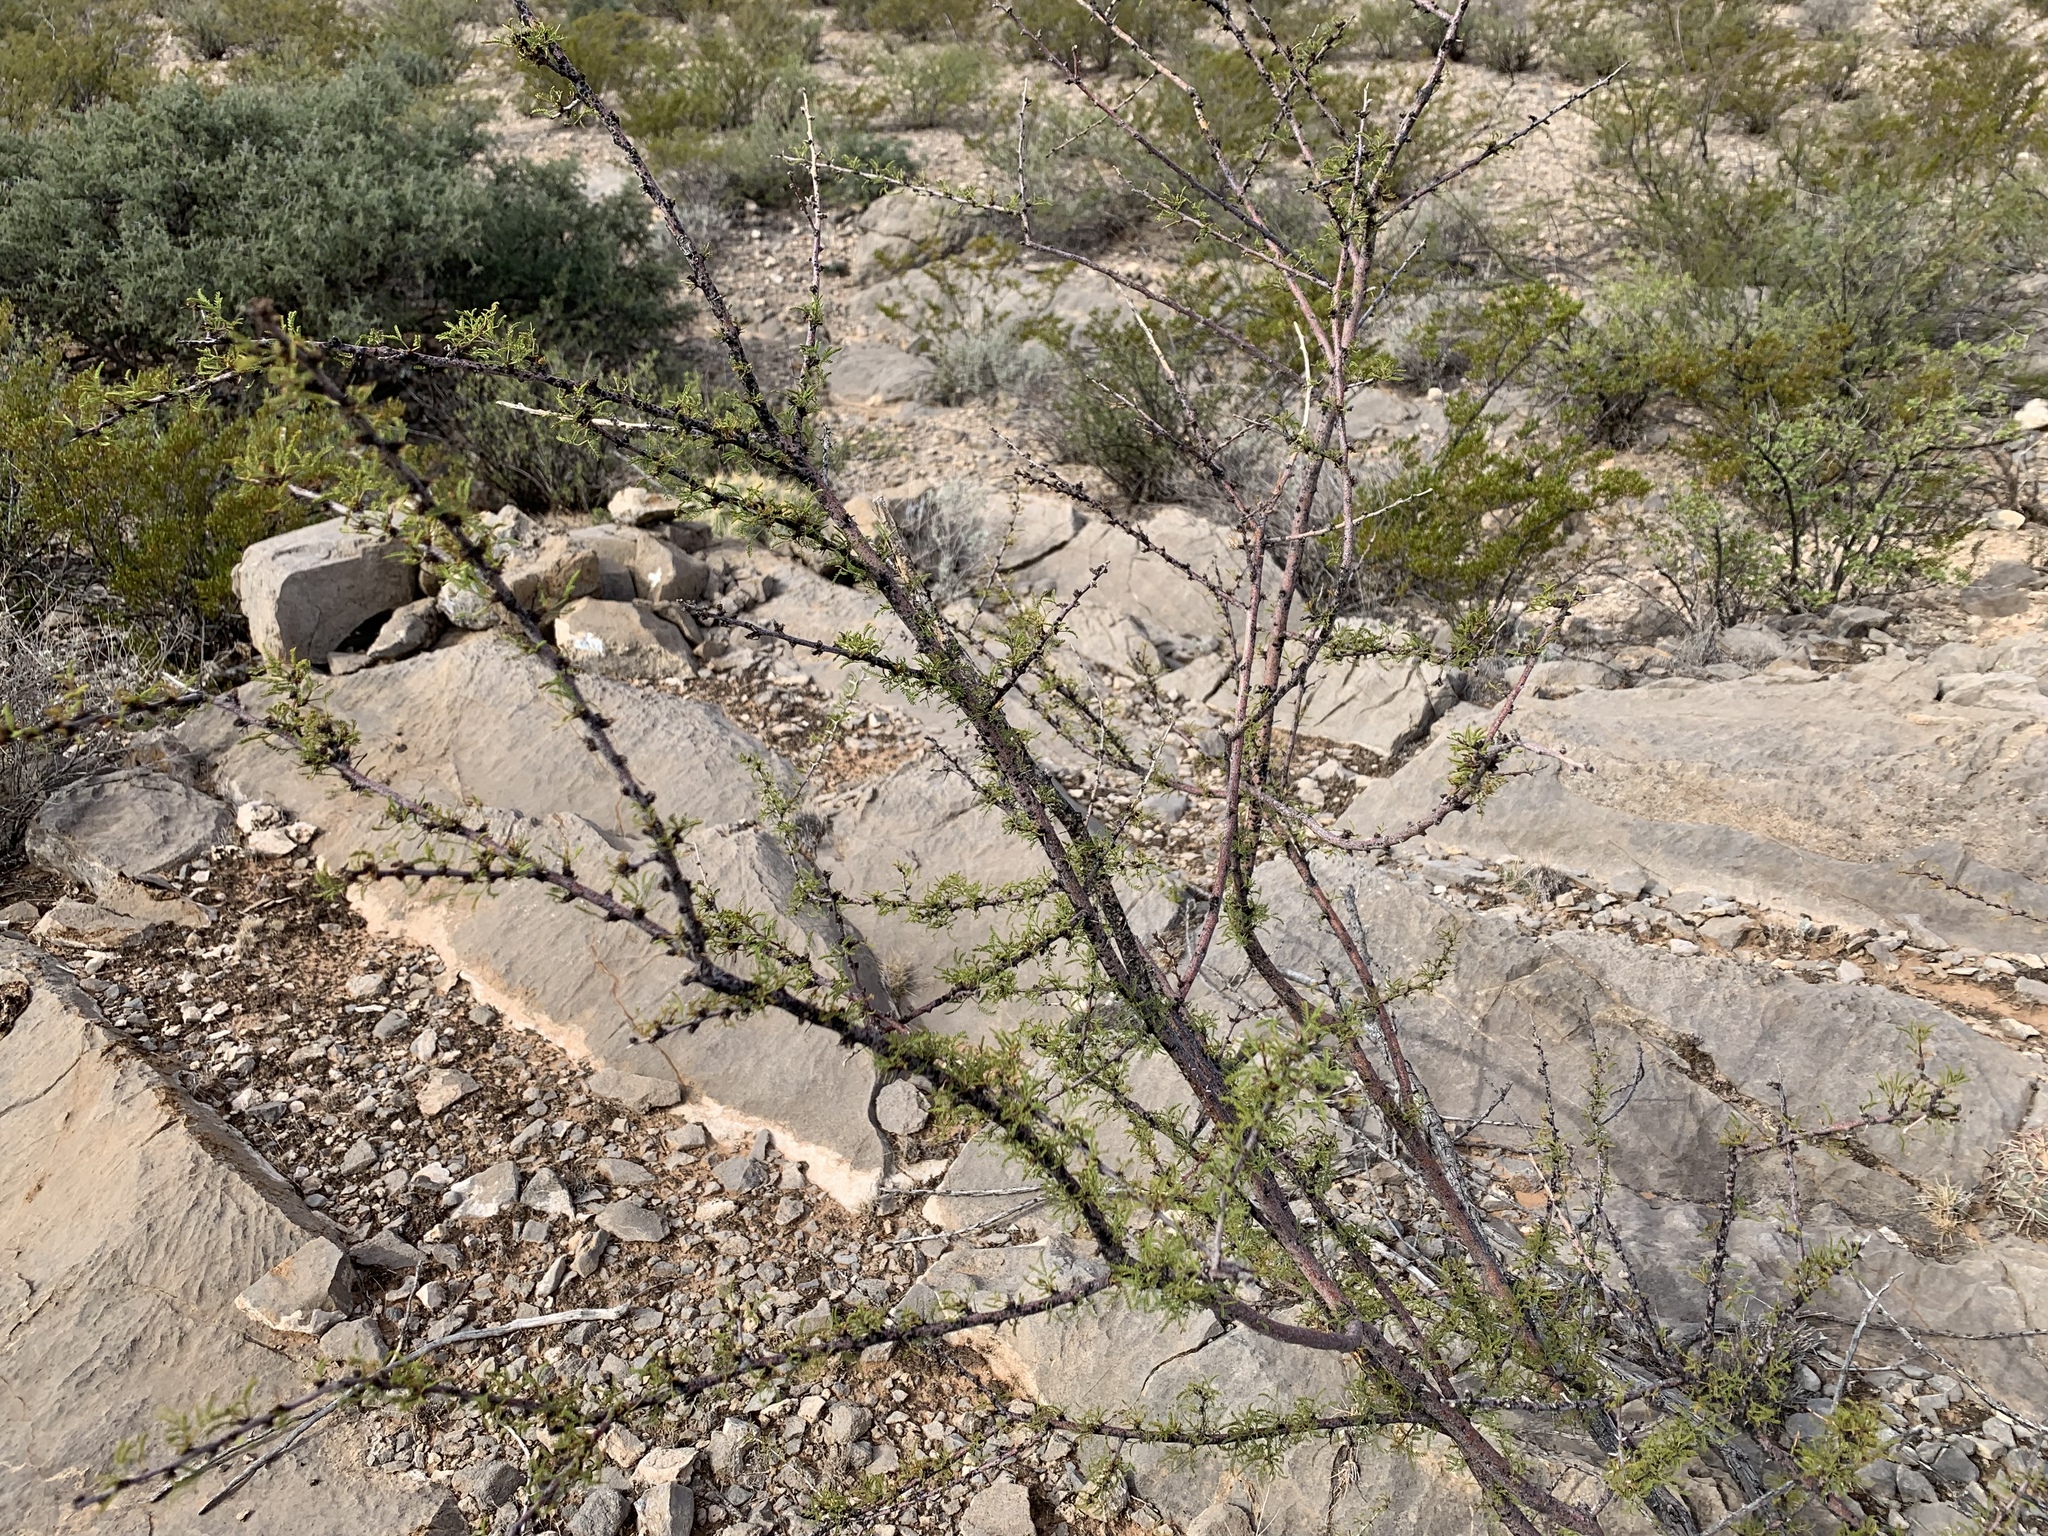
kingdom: Plantae
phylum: Tracheophyta
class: Magnoliopsida
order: Fabales
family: Fabaceae
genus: Vachellia
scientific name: Vachellia constricta
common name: Mescat acacia
